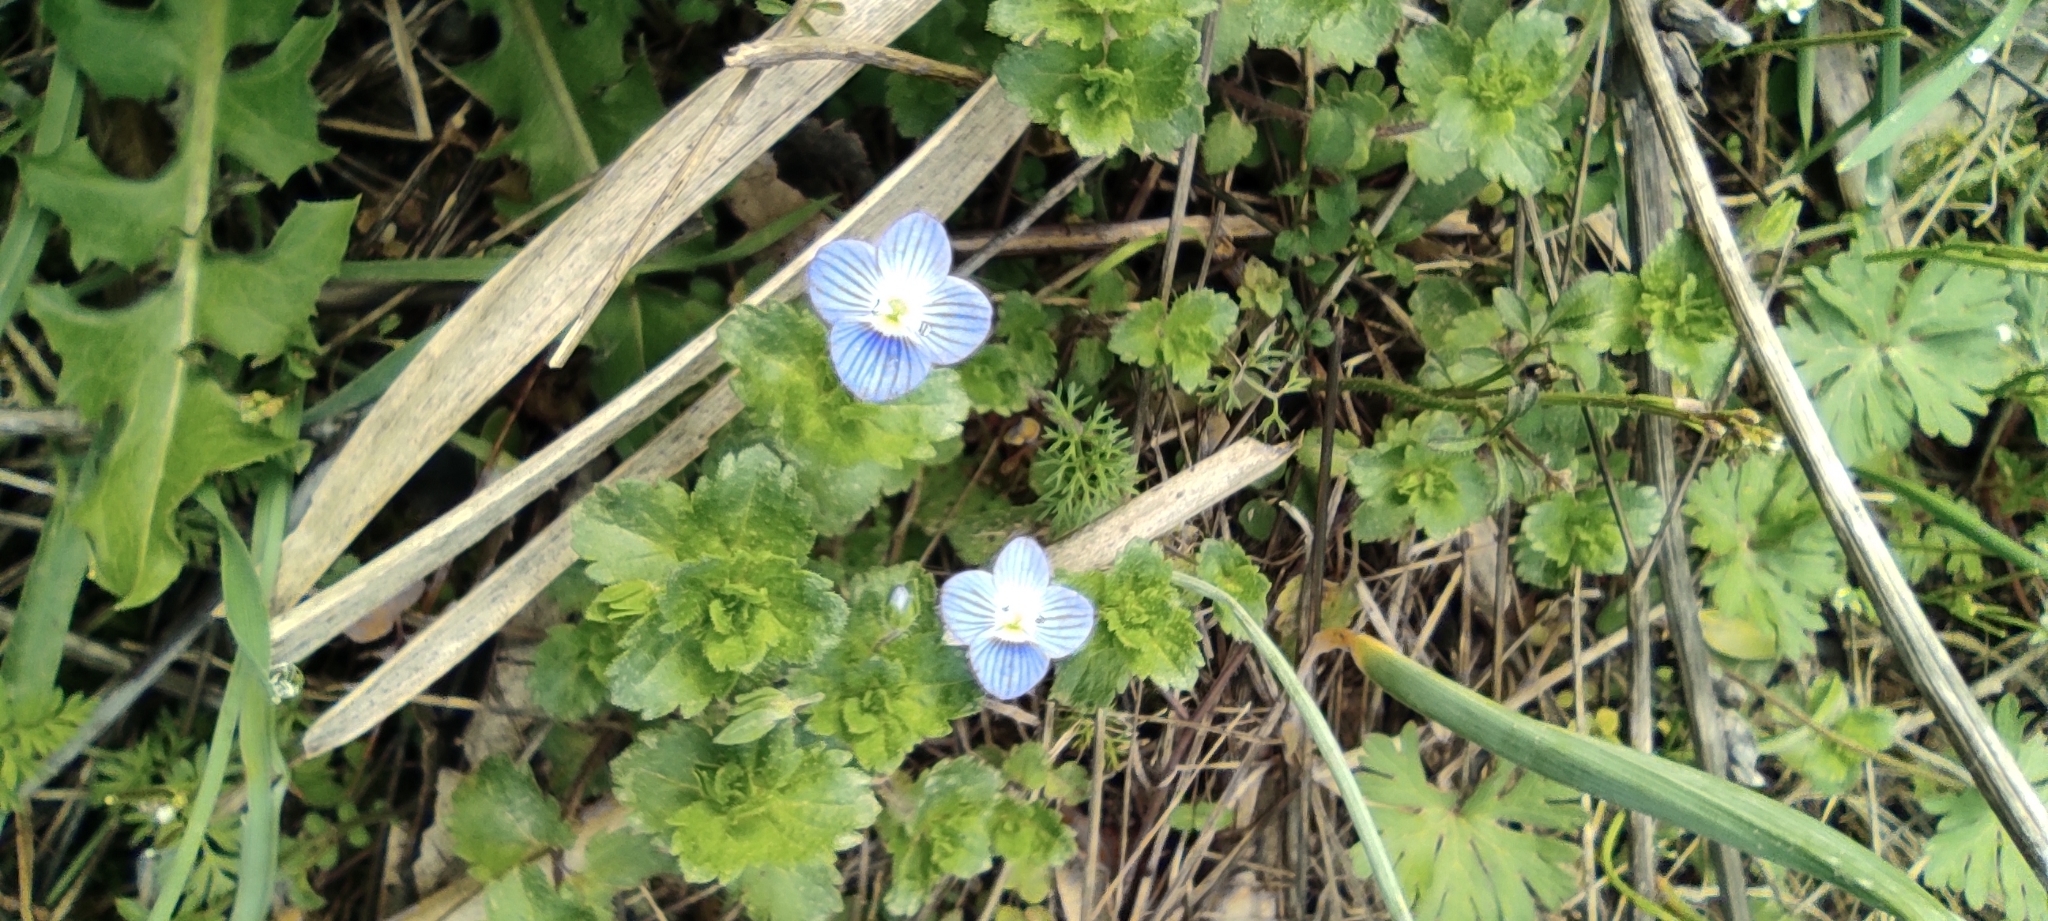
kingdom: Plantae
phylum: Tracheophyta
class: Magnoliopsida
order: Lamiales
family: Plantaginaceae
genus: Veronica
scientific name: Veronica persica
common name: Common field-speedwell
